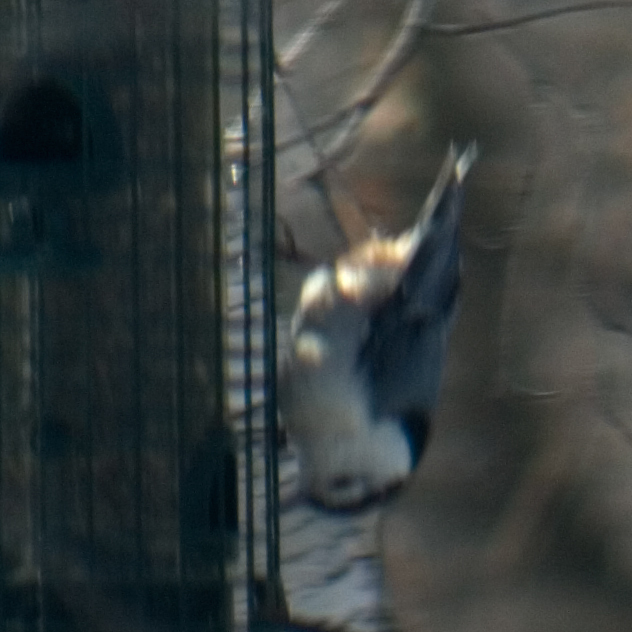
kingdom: Animalia
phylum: Chordata
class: Aves
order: Passeriformes
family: Sittidae
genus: Sitta
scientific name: Sitta carolinensis
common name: White-breasted nuthatch
